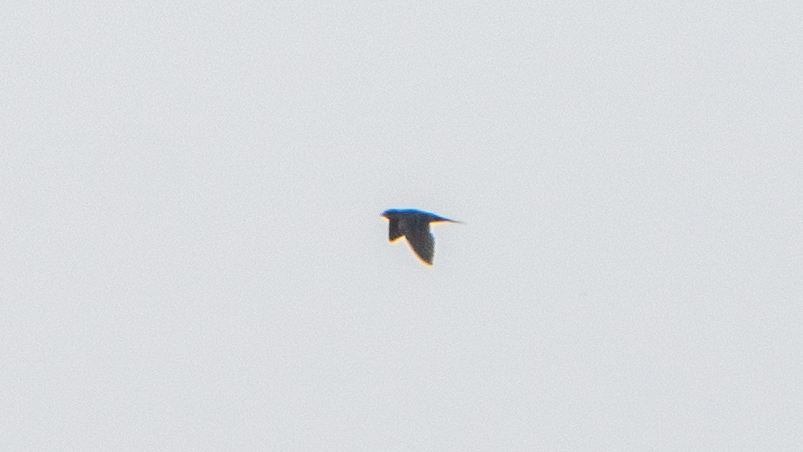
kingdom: Animalia
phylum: Chordata
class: Aves
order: Passeriformes
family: Hirundinidae
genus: Hirundo
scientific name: Hirundo rustica
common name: Barn swallow
